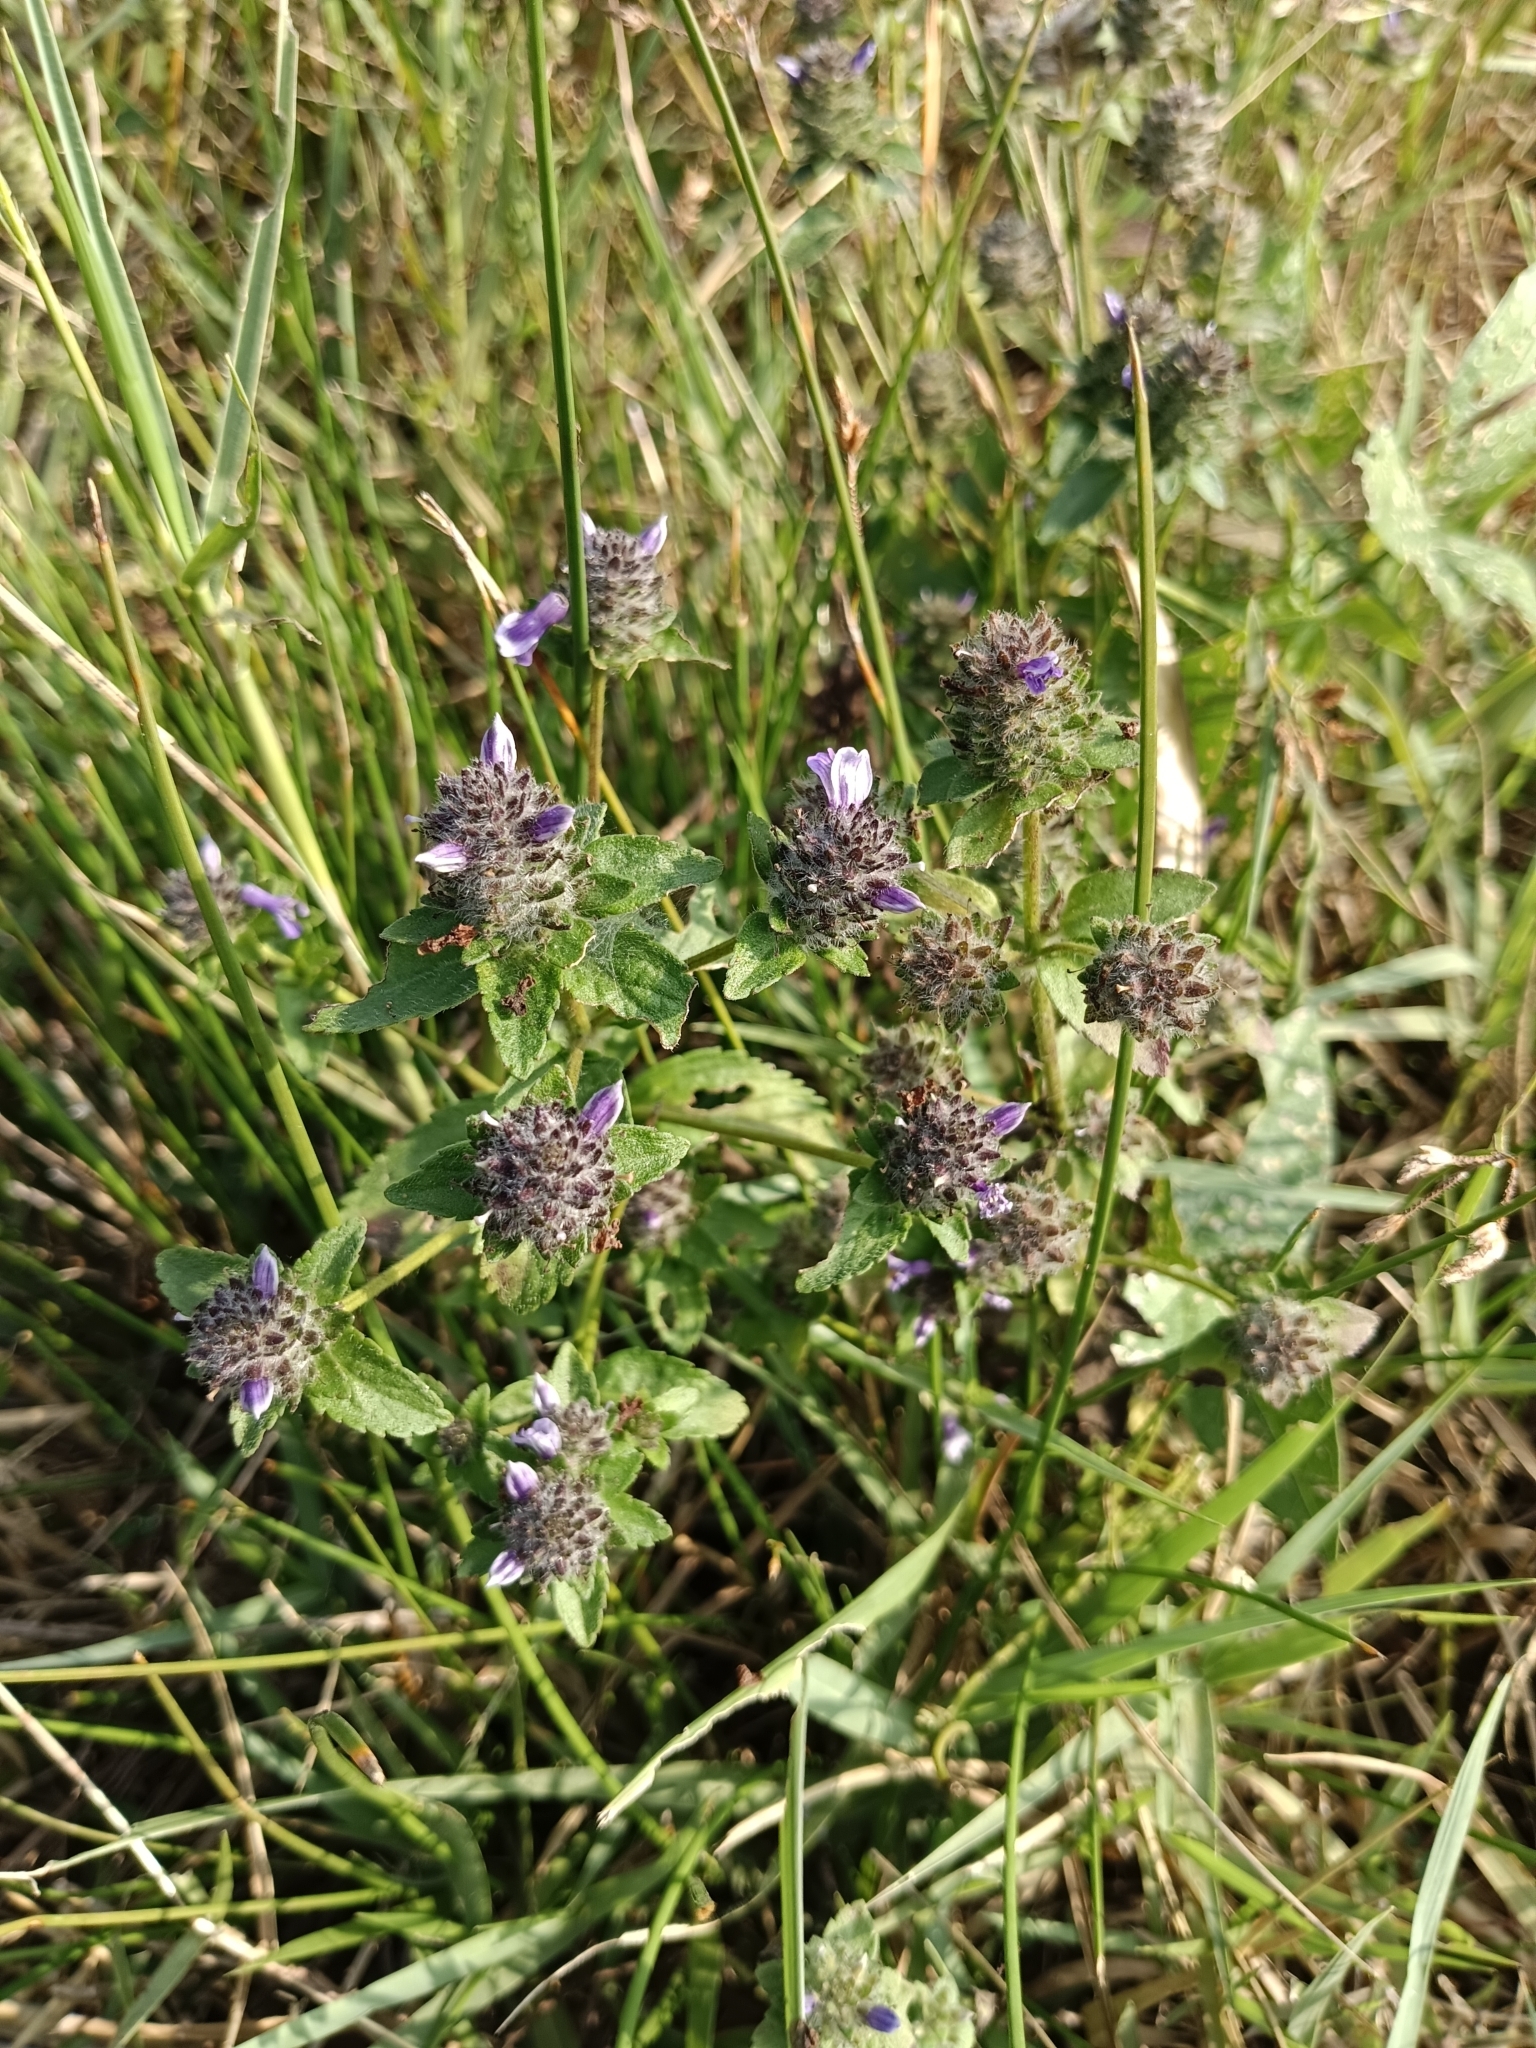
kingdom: Plantae
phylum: Tracheophyta
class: Magnoliopsida
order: Lamiales
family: Plantaginaceae
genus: Adenosma
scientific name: Adenosma indiana
